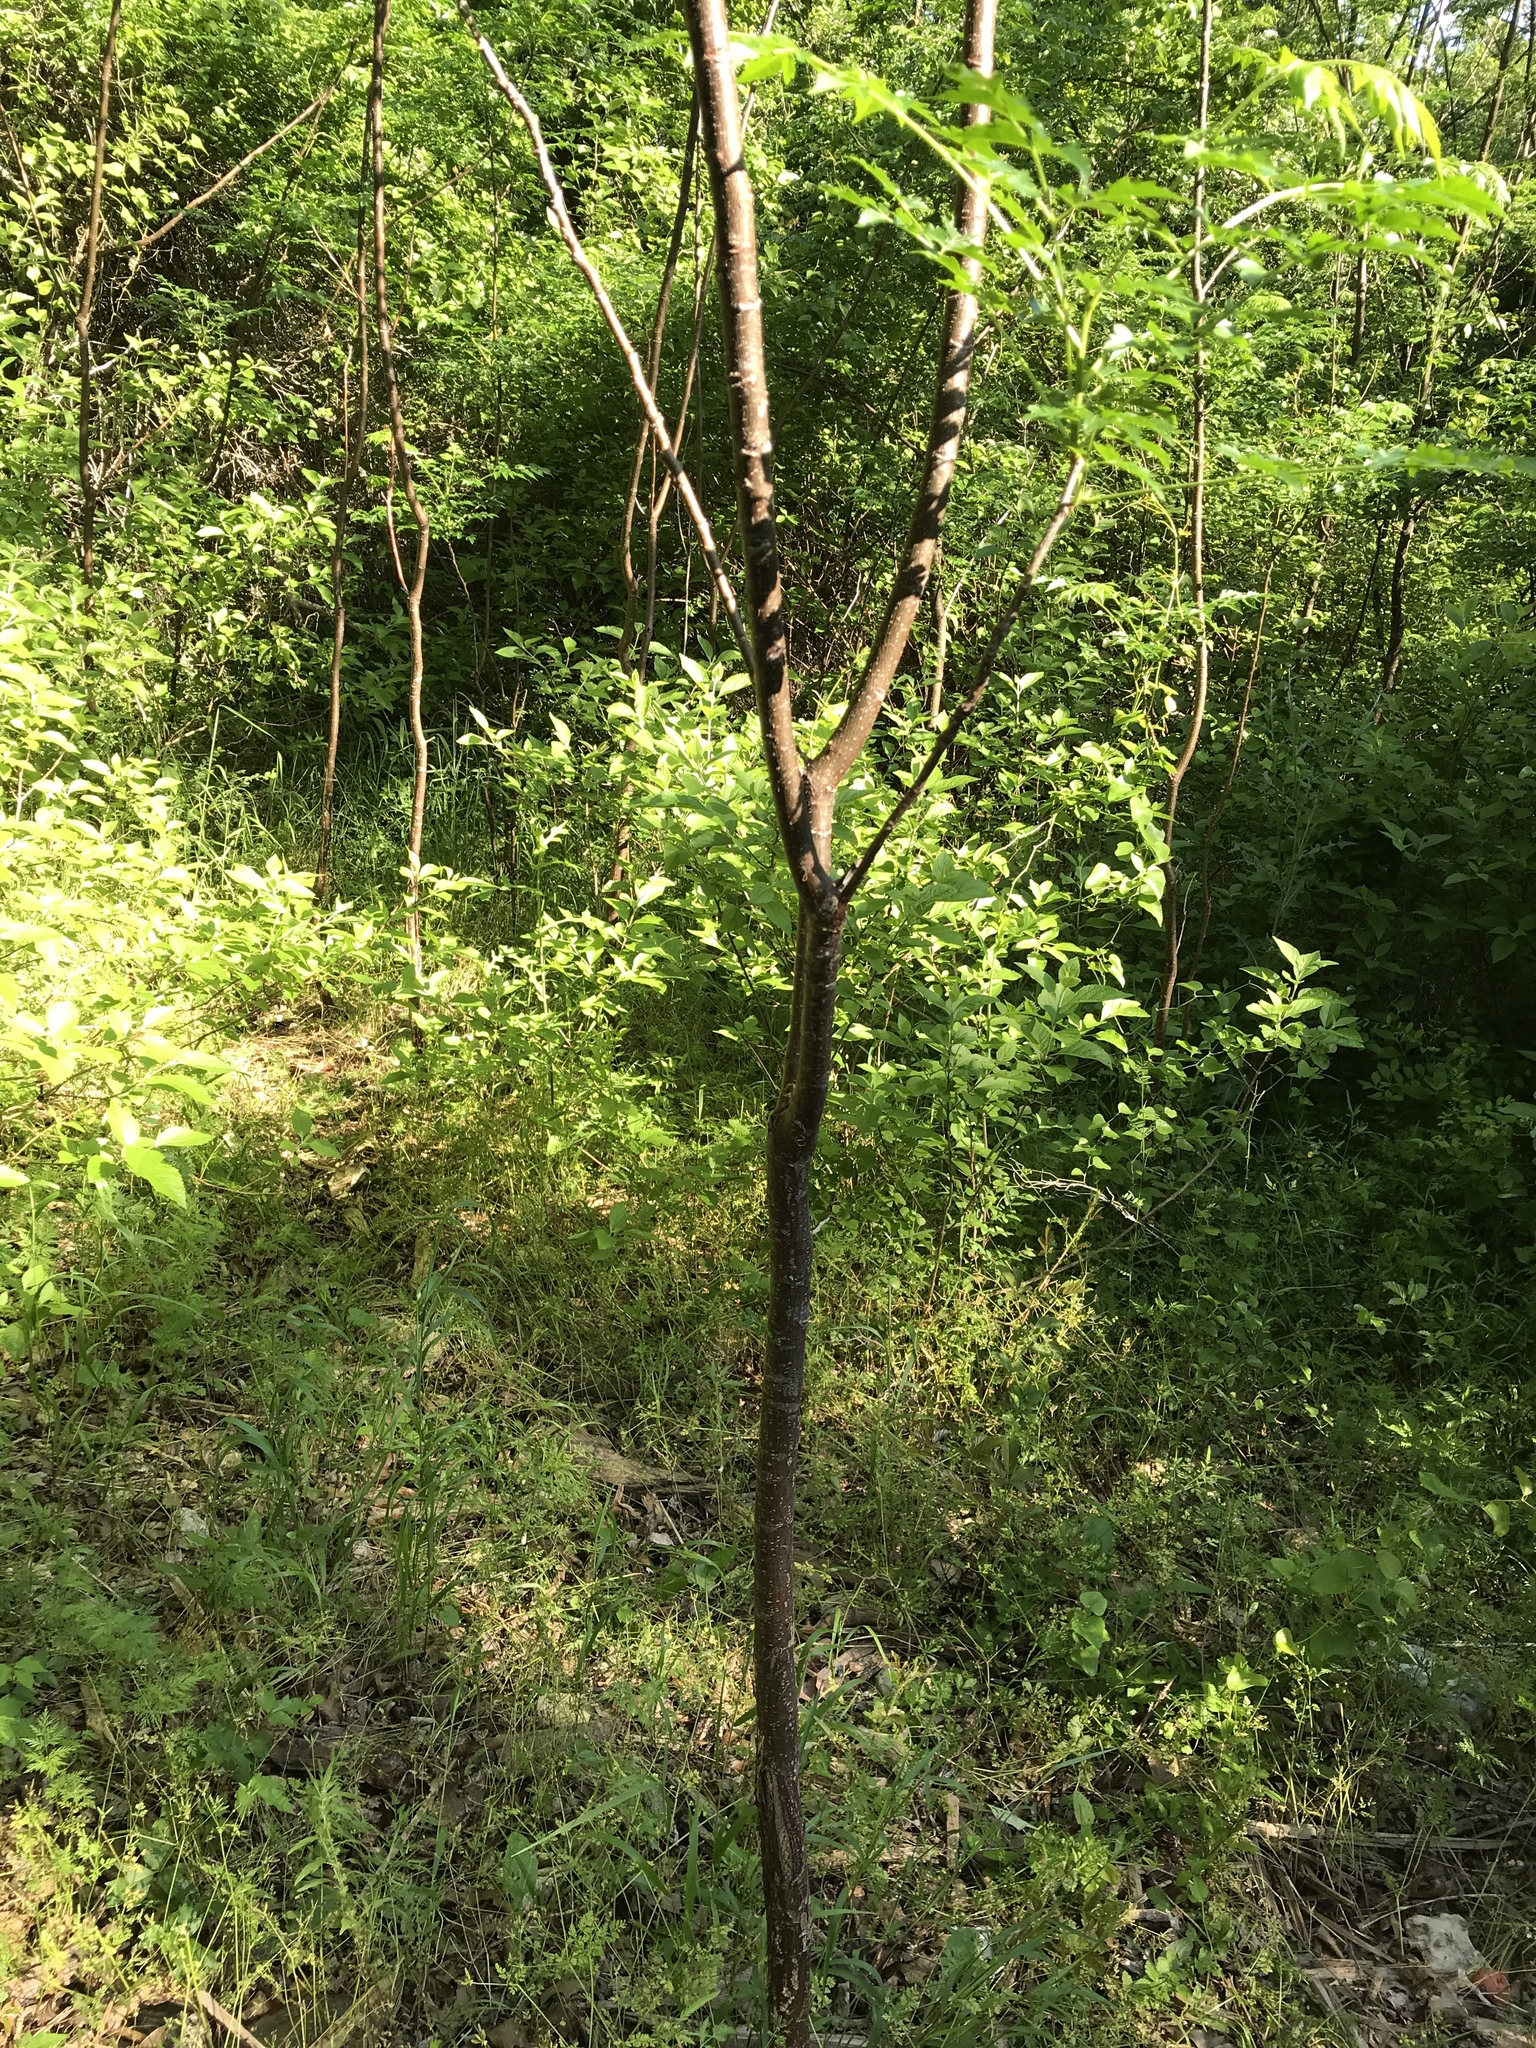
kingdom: Plantae
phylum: Tracheophyta
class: Magnoliopsida
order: Sapindales
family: Meliaceae
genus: Melia
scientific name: Melia azedarach
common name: Chinaberrytree
